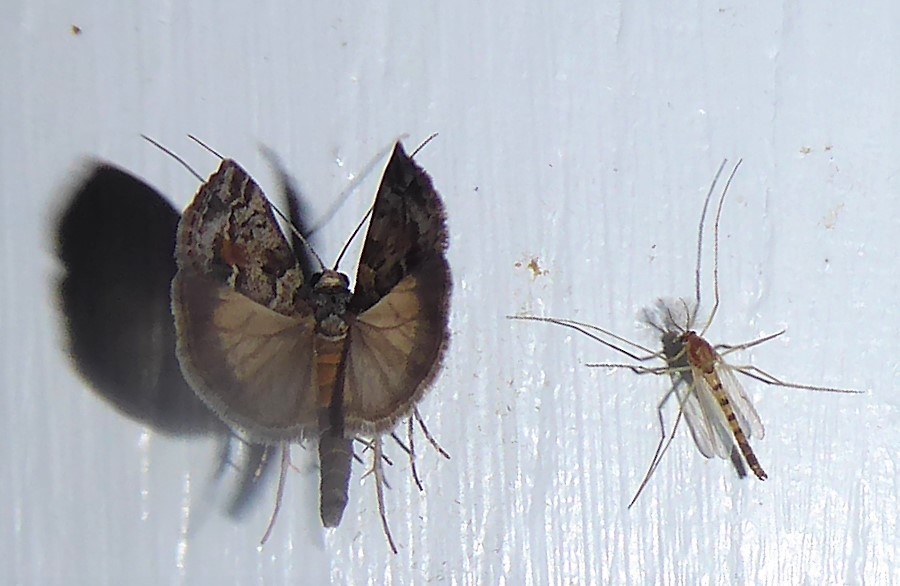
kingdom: Animalia
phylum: Arthropoda
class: Insecta
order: Lepidoptera
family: Crambidae
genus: Eudonia
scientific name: Eudonia submarginalis
